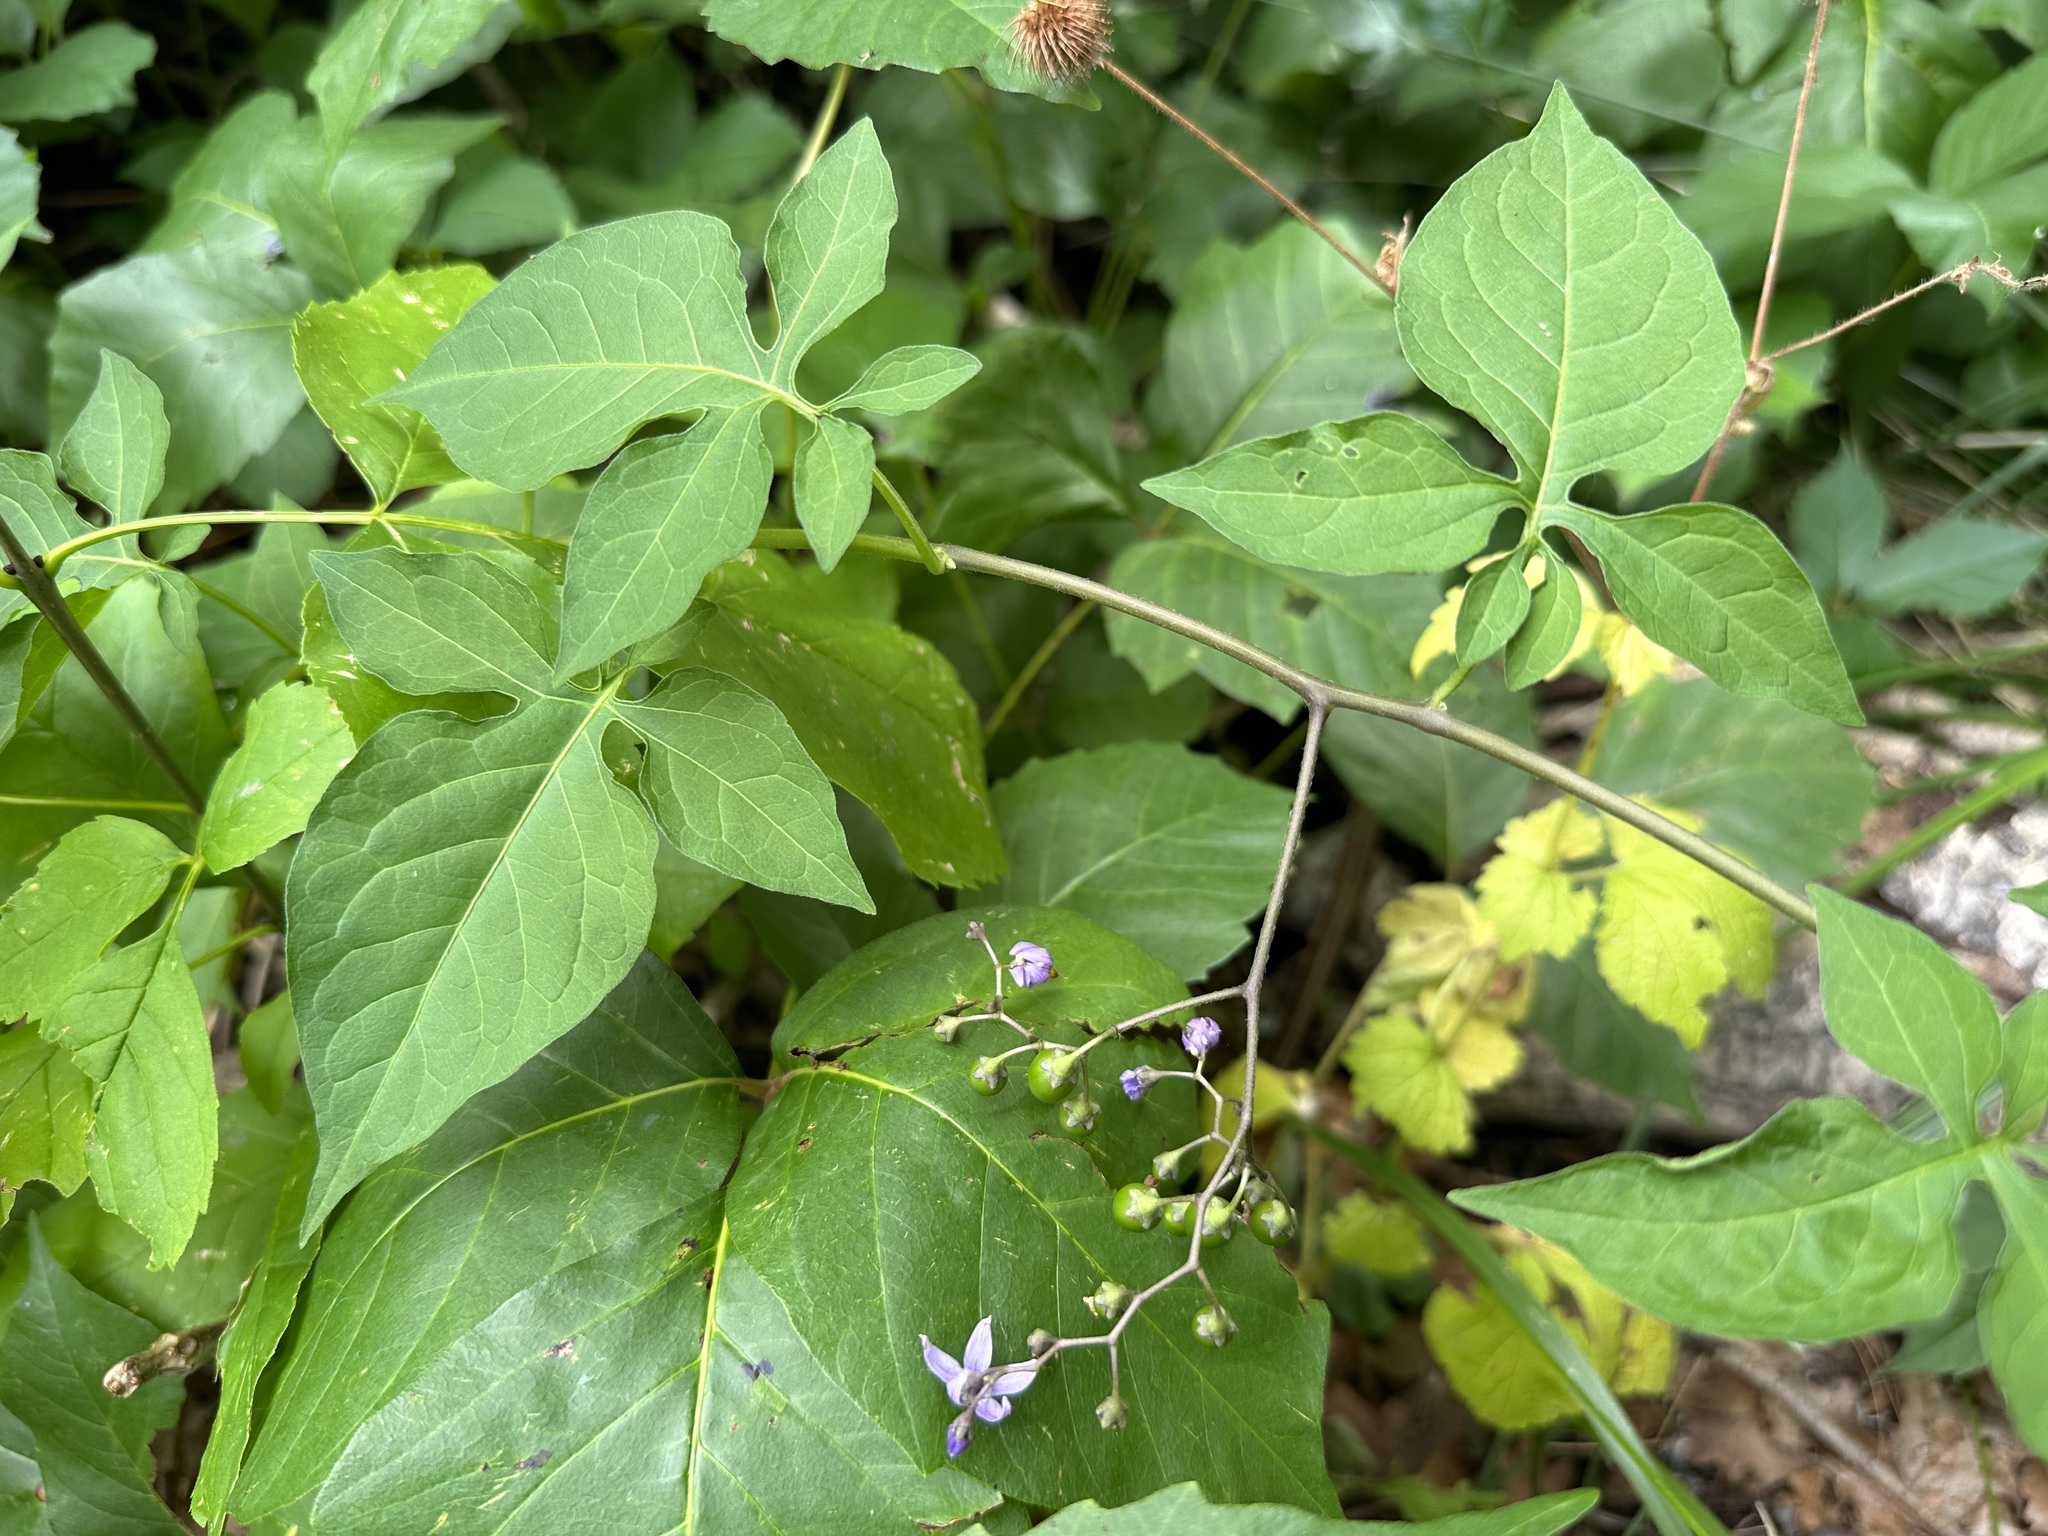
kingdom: Plantae
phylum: Tracheophyta
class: Magnoliopsida
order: Solanales
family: Solanaceae
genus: Solanum
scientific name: Solanum dulcamara
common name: Climbing nightshade
